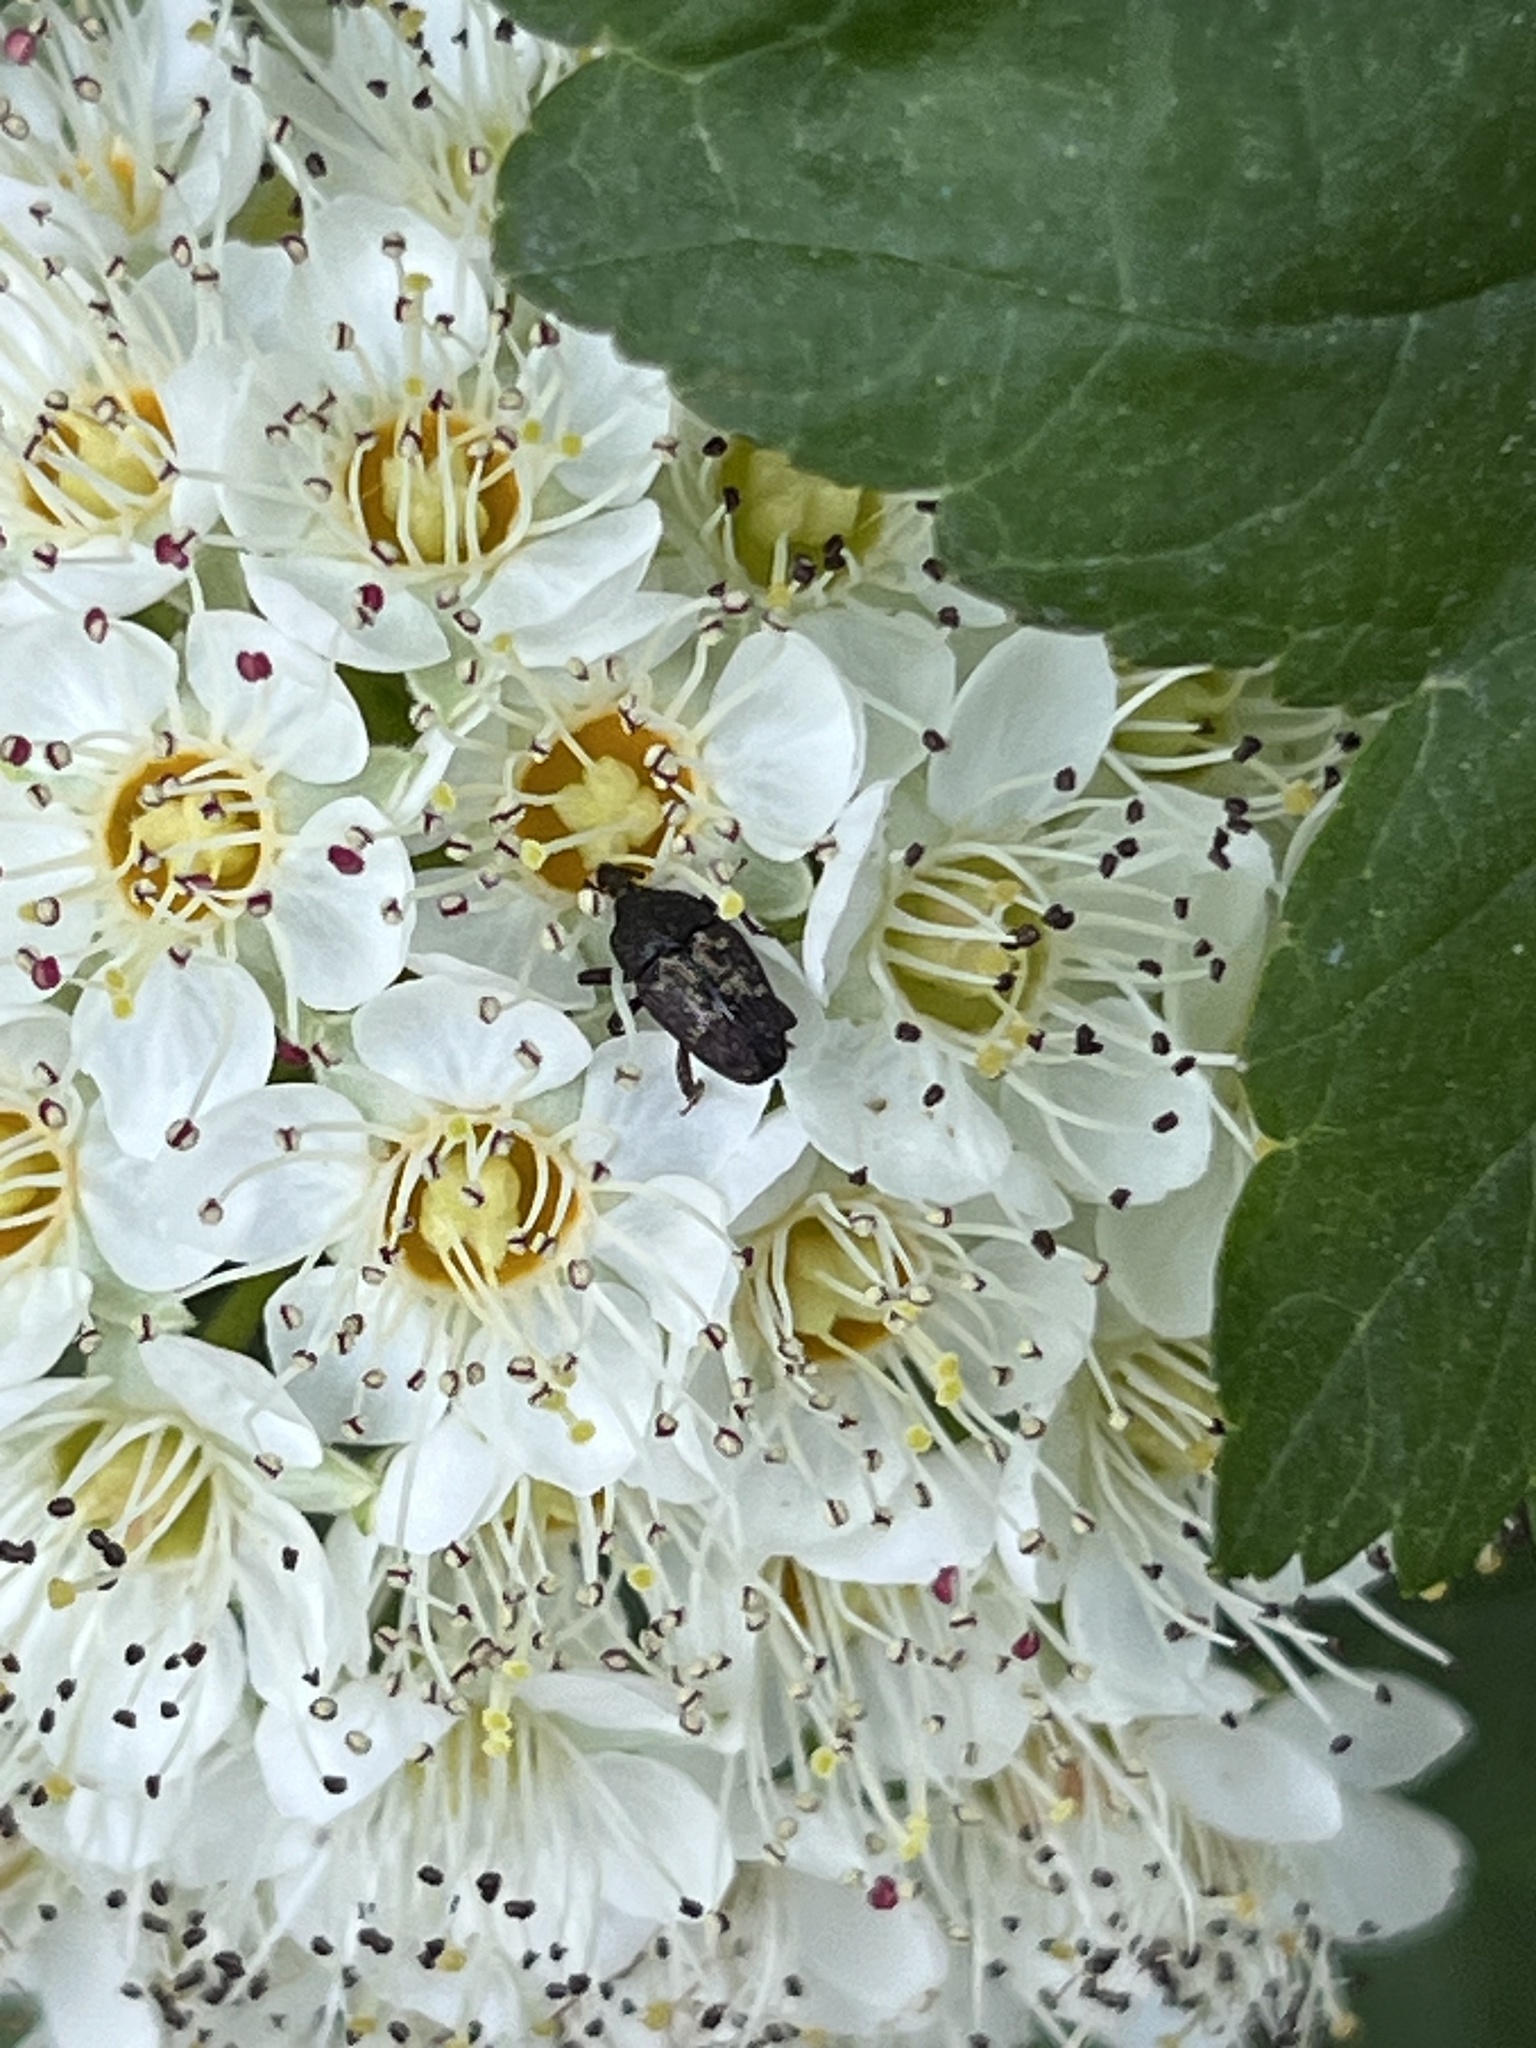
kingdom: Animalia
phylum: Arthropoda
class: Insecta
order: Coleoptera
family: Curculionidae
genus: Glyptobaris
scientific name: Glyptobaris lecontei
